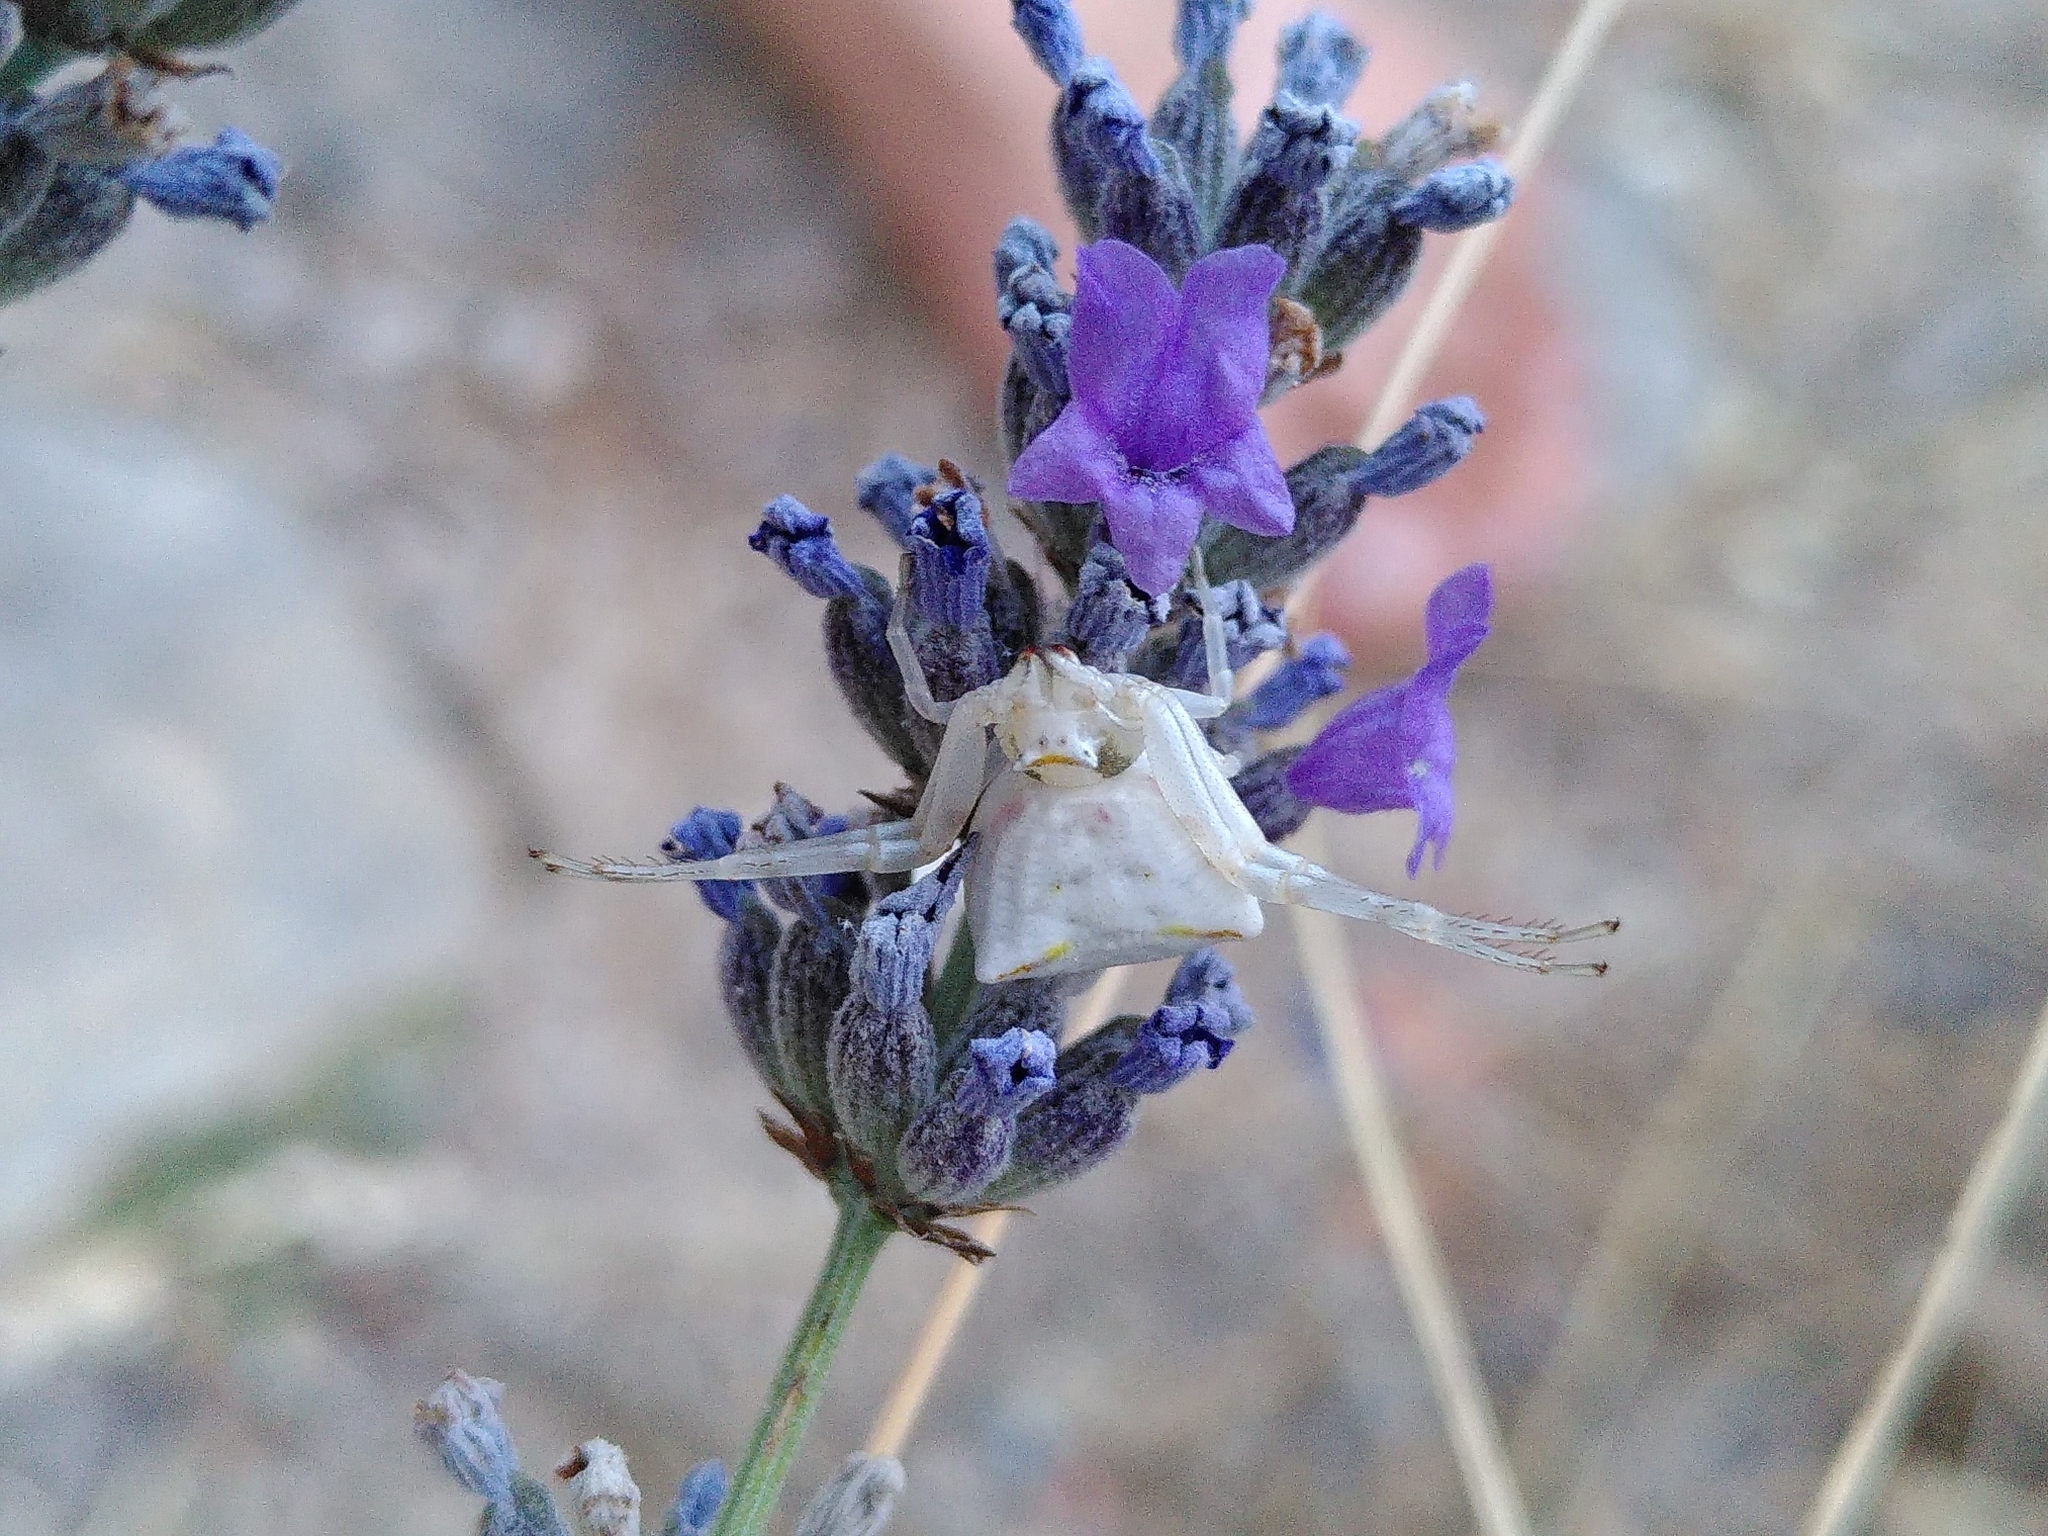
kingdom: Animalia
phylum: Arthropoda
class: Arachnida
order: Araneae
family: Thomisidae
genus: Thomisus
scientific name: Thomisus onustus
